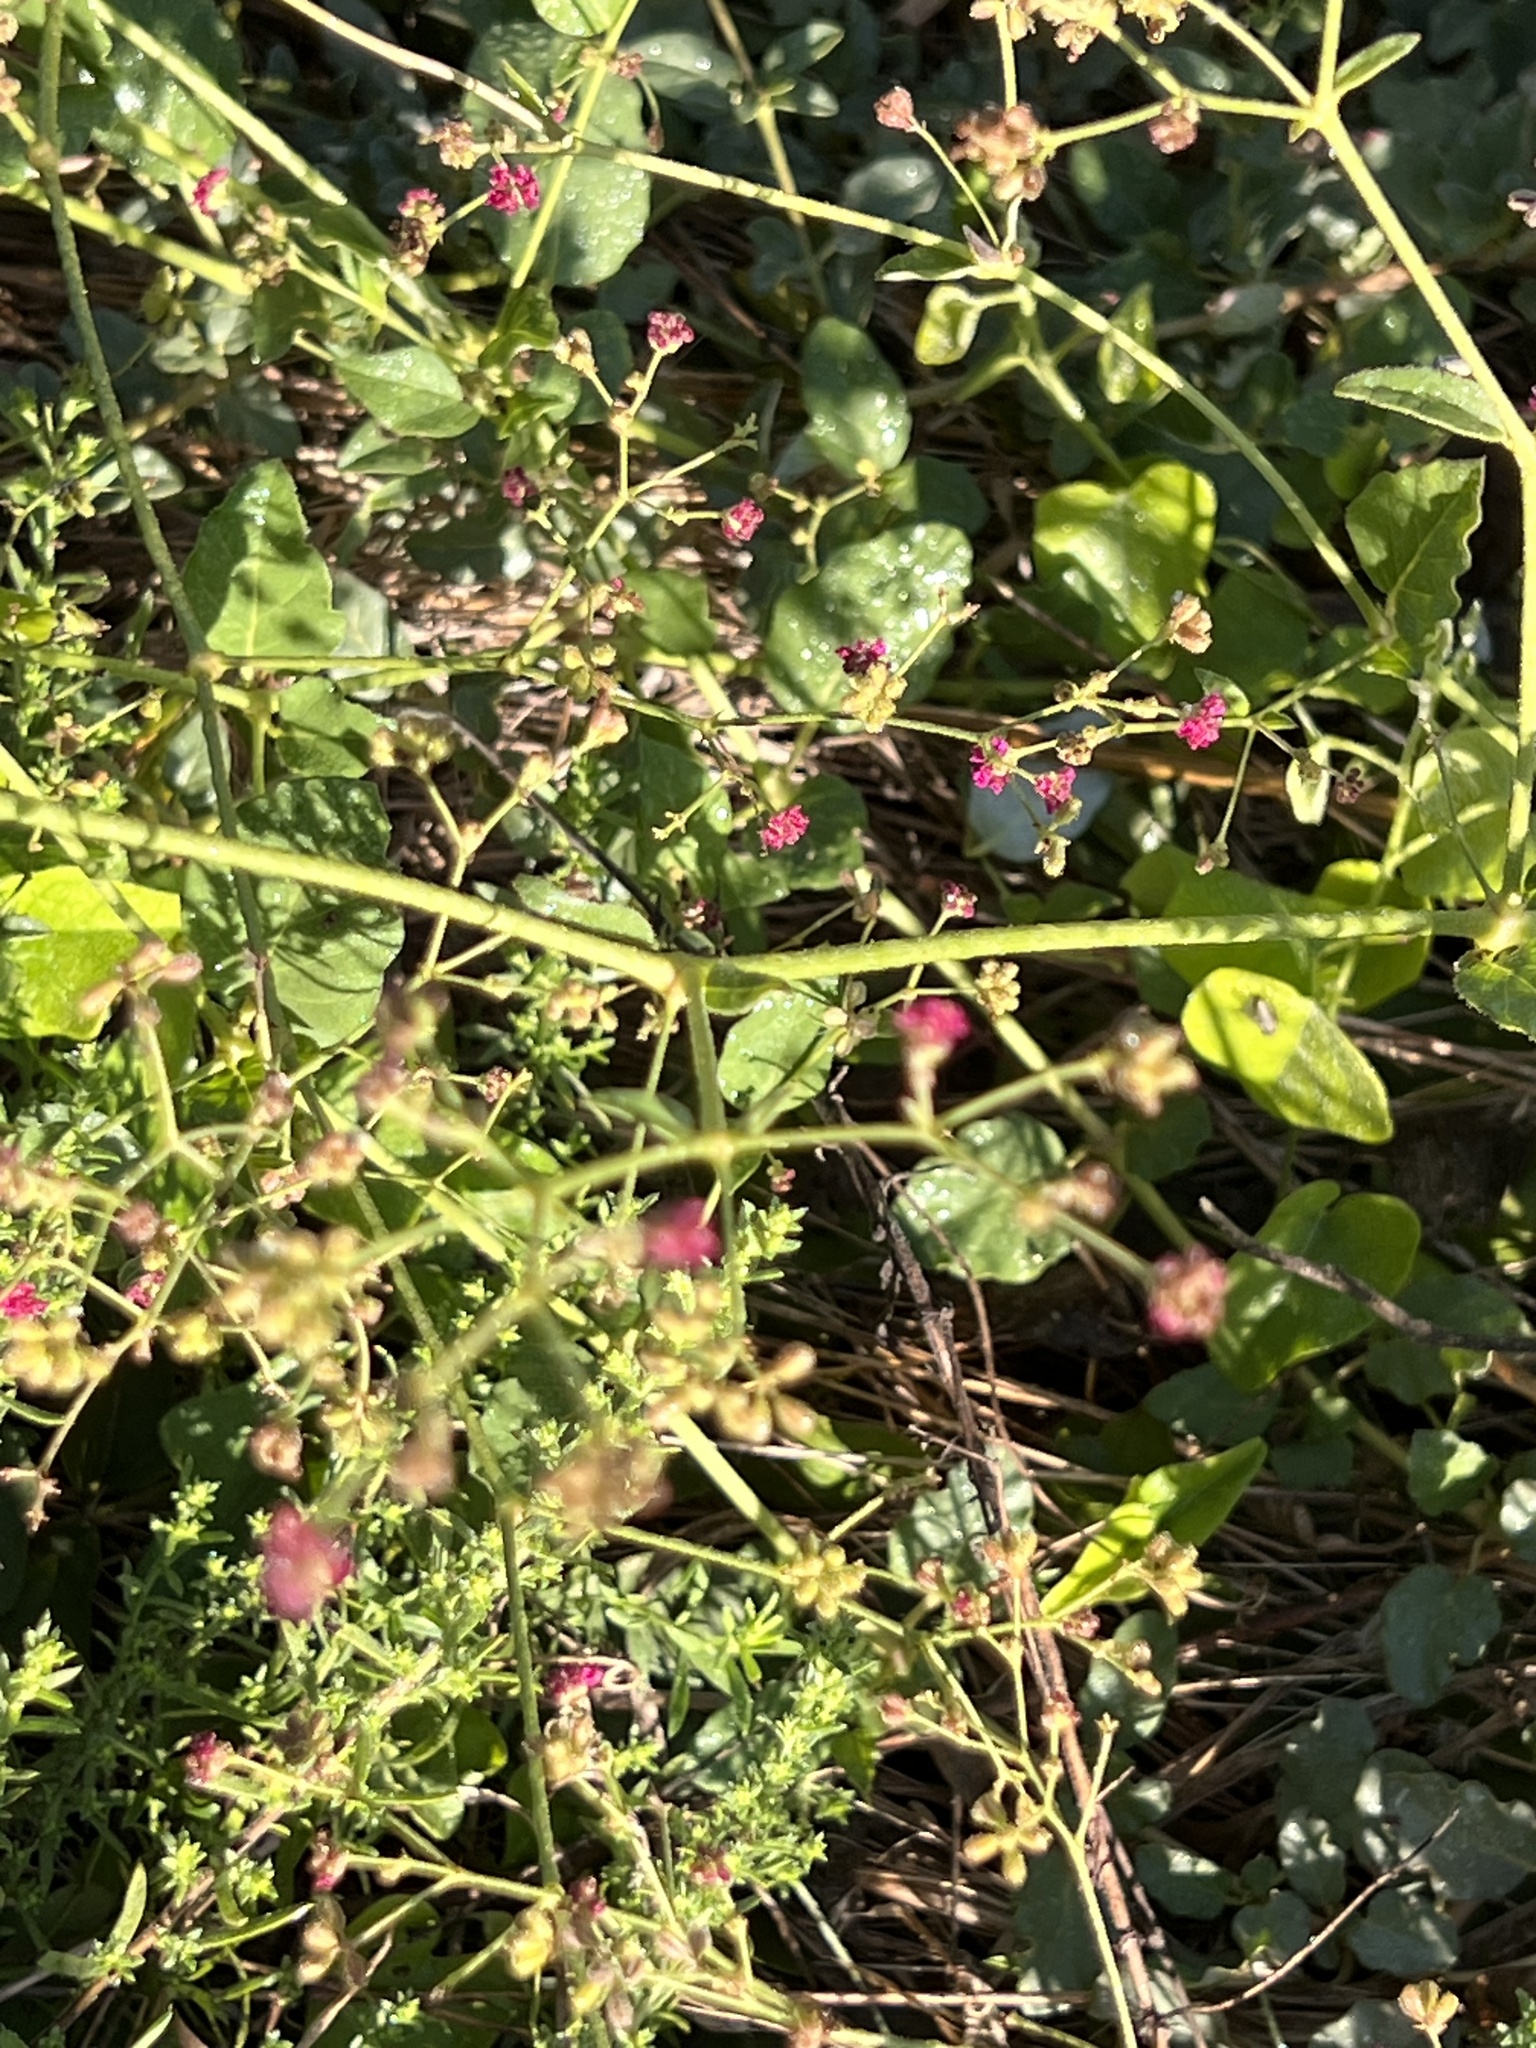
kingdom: Plantae
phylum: Tracheophyta
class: Magnoliopsida
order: Caryophyllales
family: Nyctaginaceae
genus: Boerhavia
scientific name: Boerhavia coccinea
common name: Scarlet spiderling
